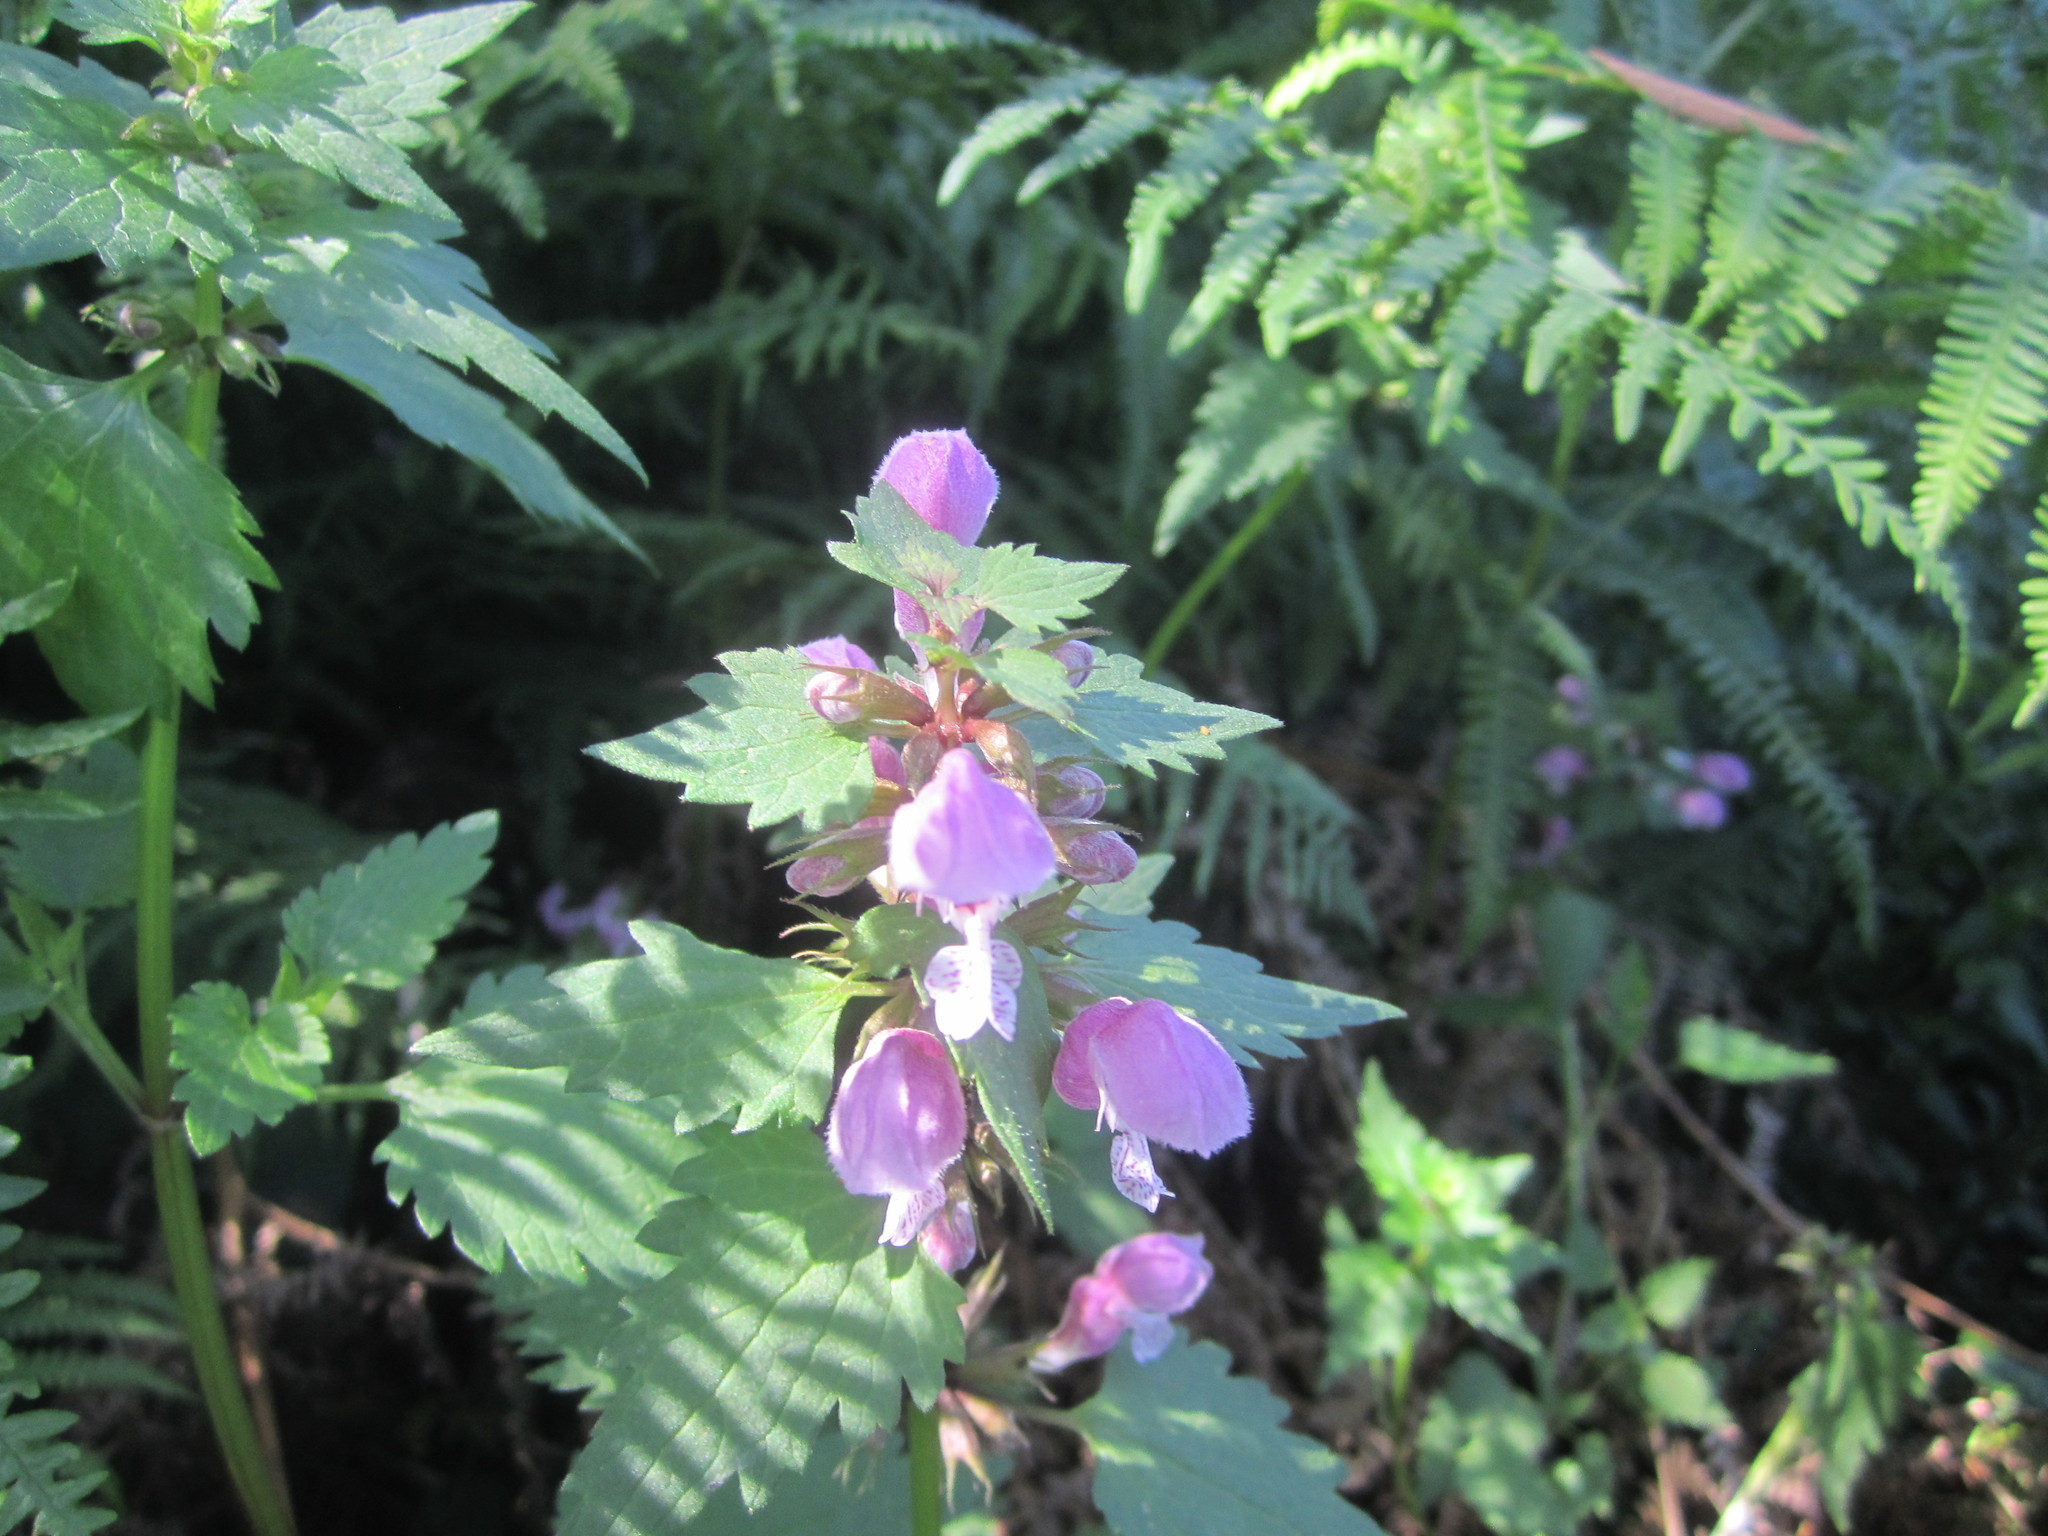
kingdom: Plantae
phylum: Tracheophyta
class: Magnoliopsida
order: Lamiales
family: Lamiaceae
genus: Lamium
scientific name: Lamium maculatum
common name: Spotted dead-nettle
